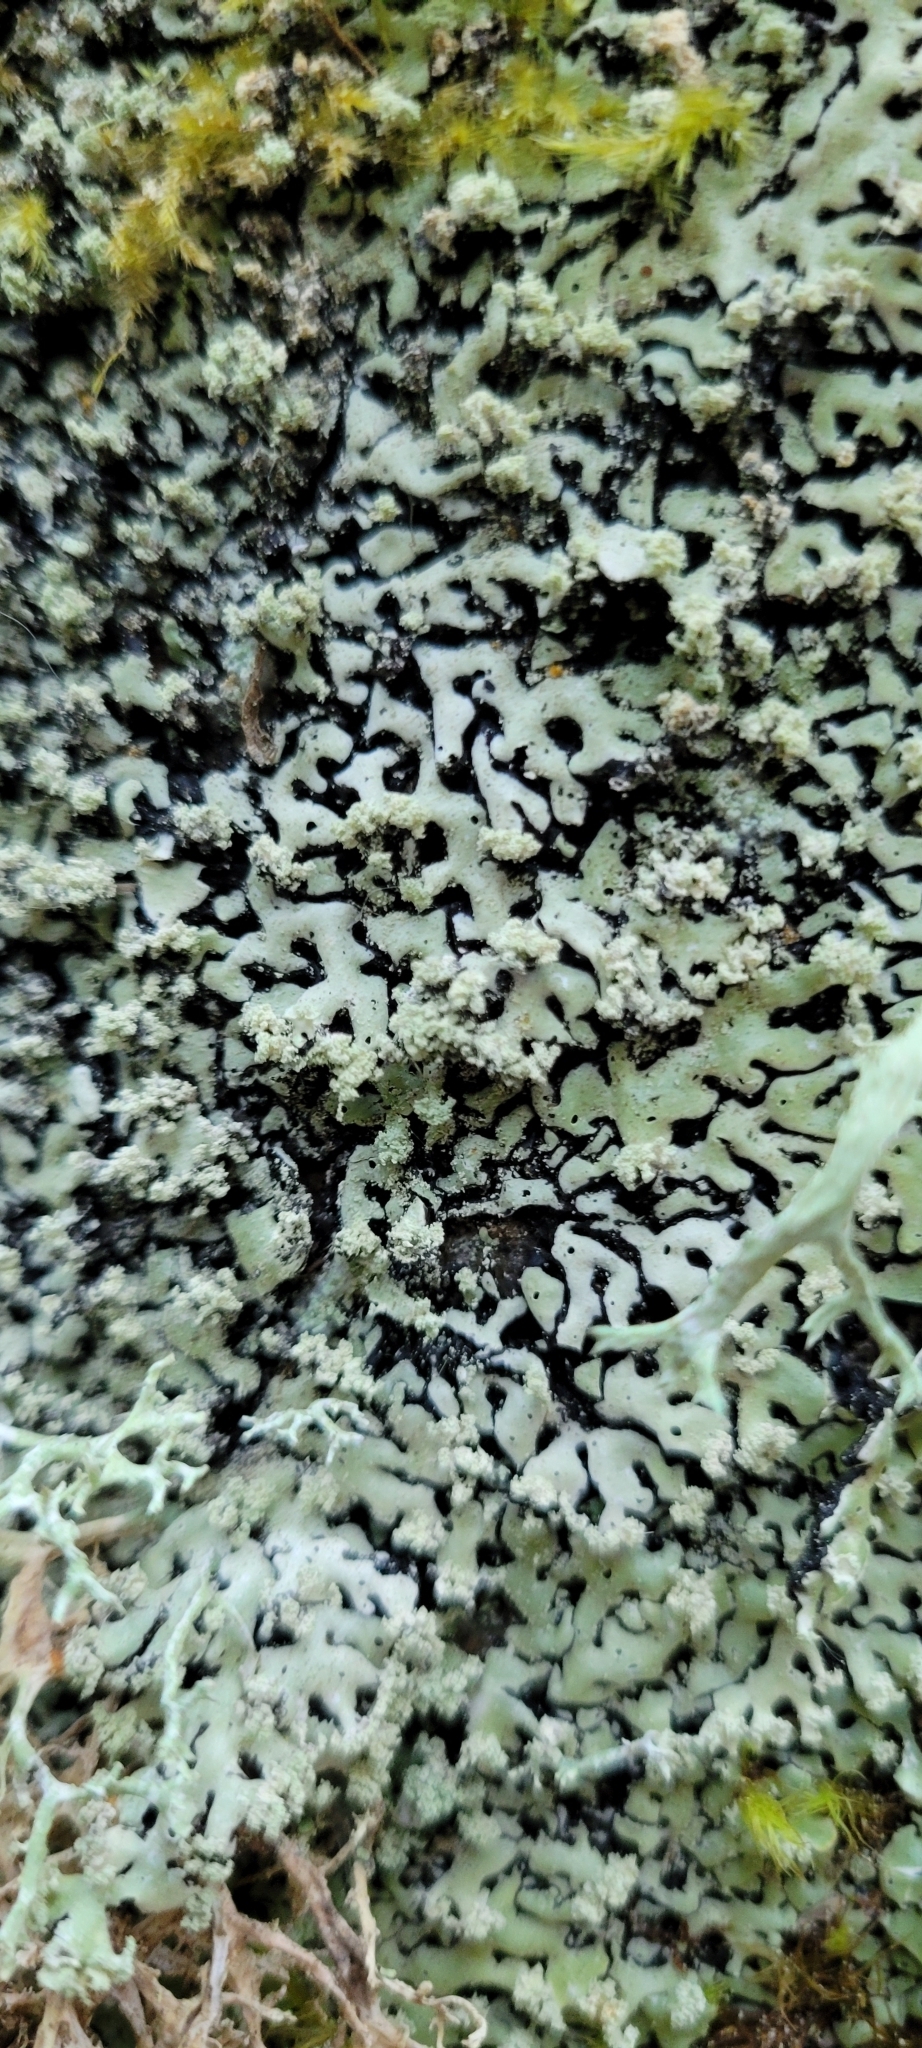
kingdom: Fungi
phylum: Ascomycota
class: Lecanoromycetes
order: Lecanorales
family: Parmeliaceae
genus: Menegazzia
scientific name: Menegazzia subsimilis
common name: Tree flute lichen
